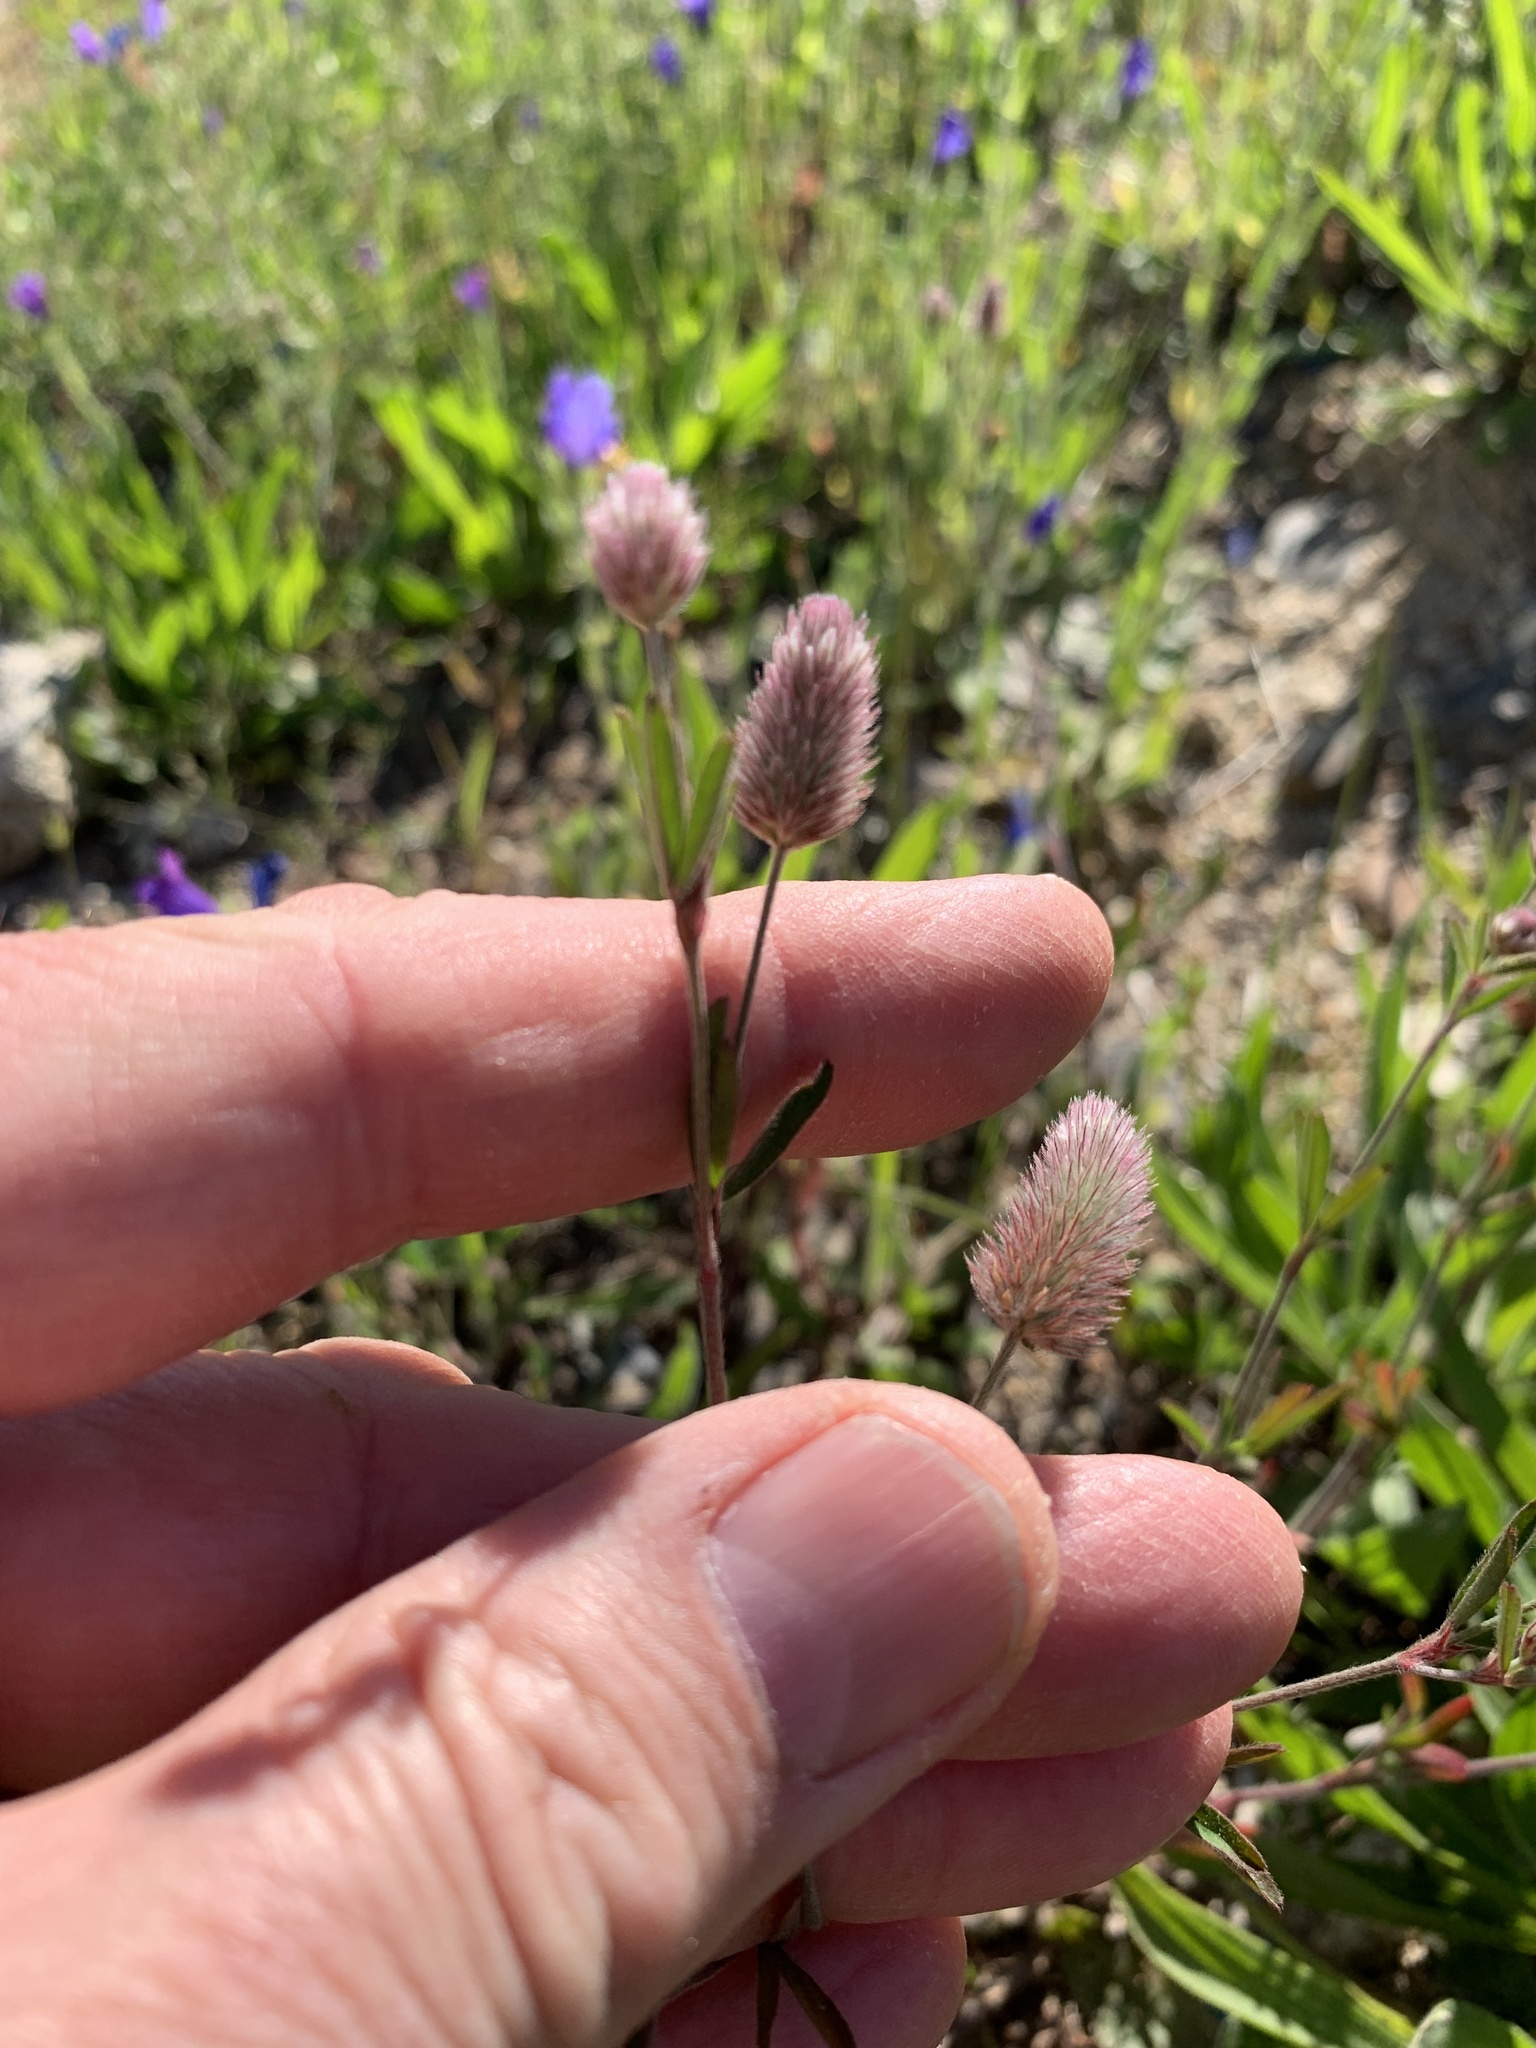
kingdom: Plantae
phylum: Tracheophyta
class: Magnoliopsida
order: Fabales
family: Fabaceae
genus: Trifolium
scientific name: Trifolium arvense
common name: Hare's-foot clover
